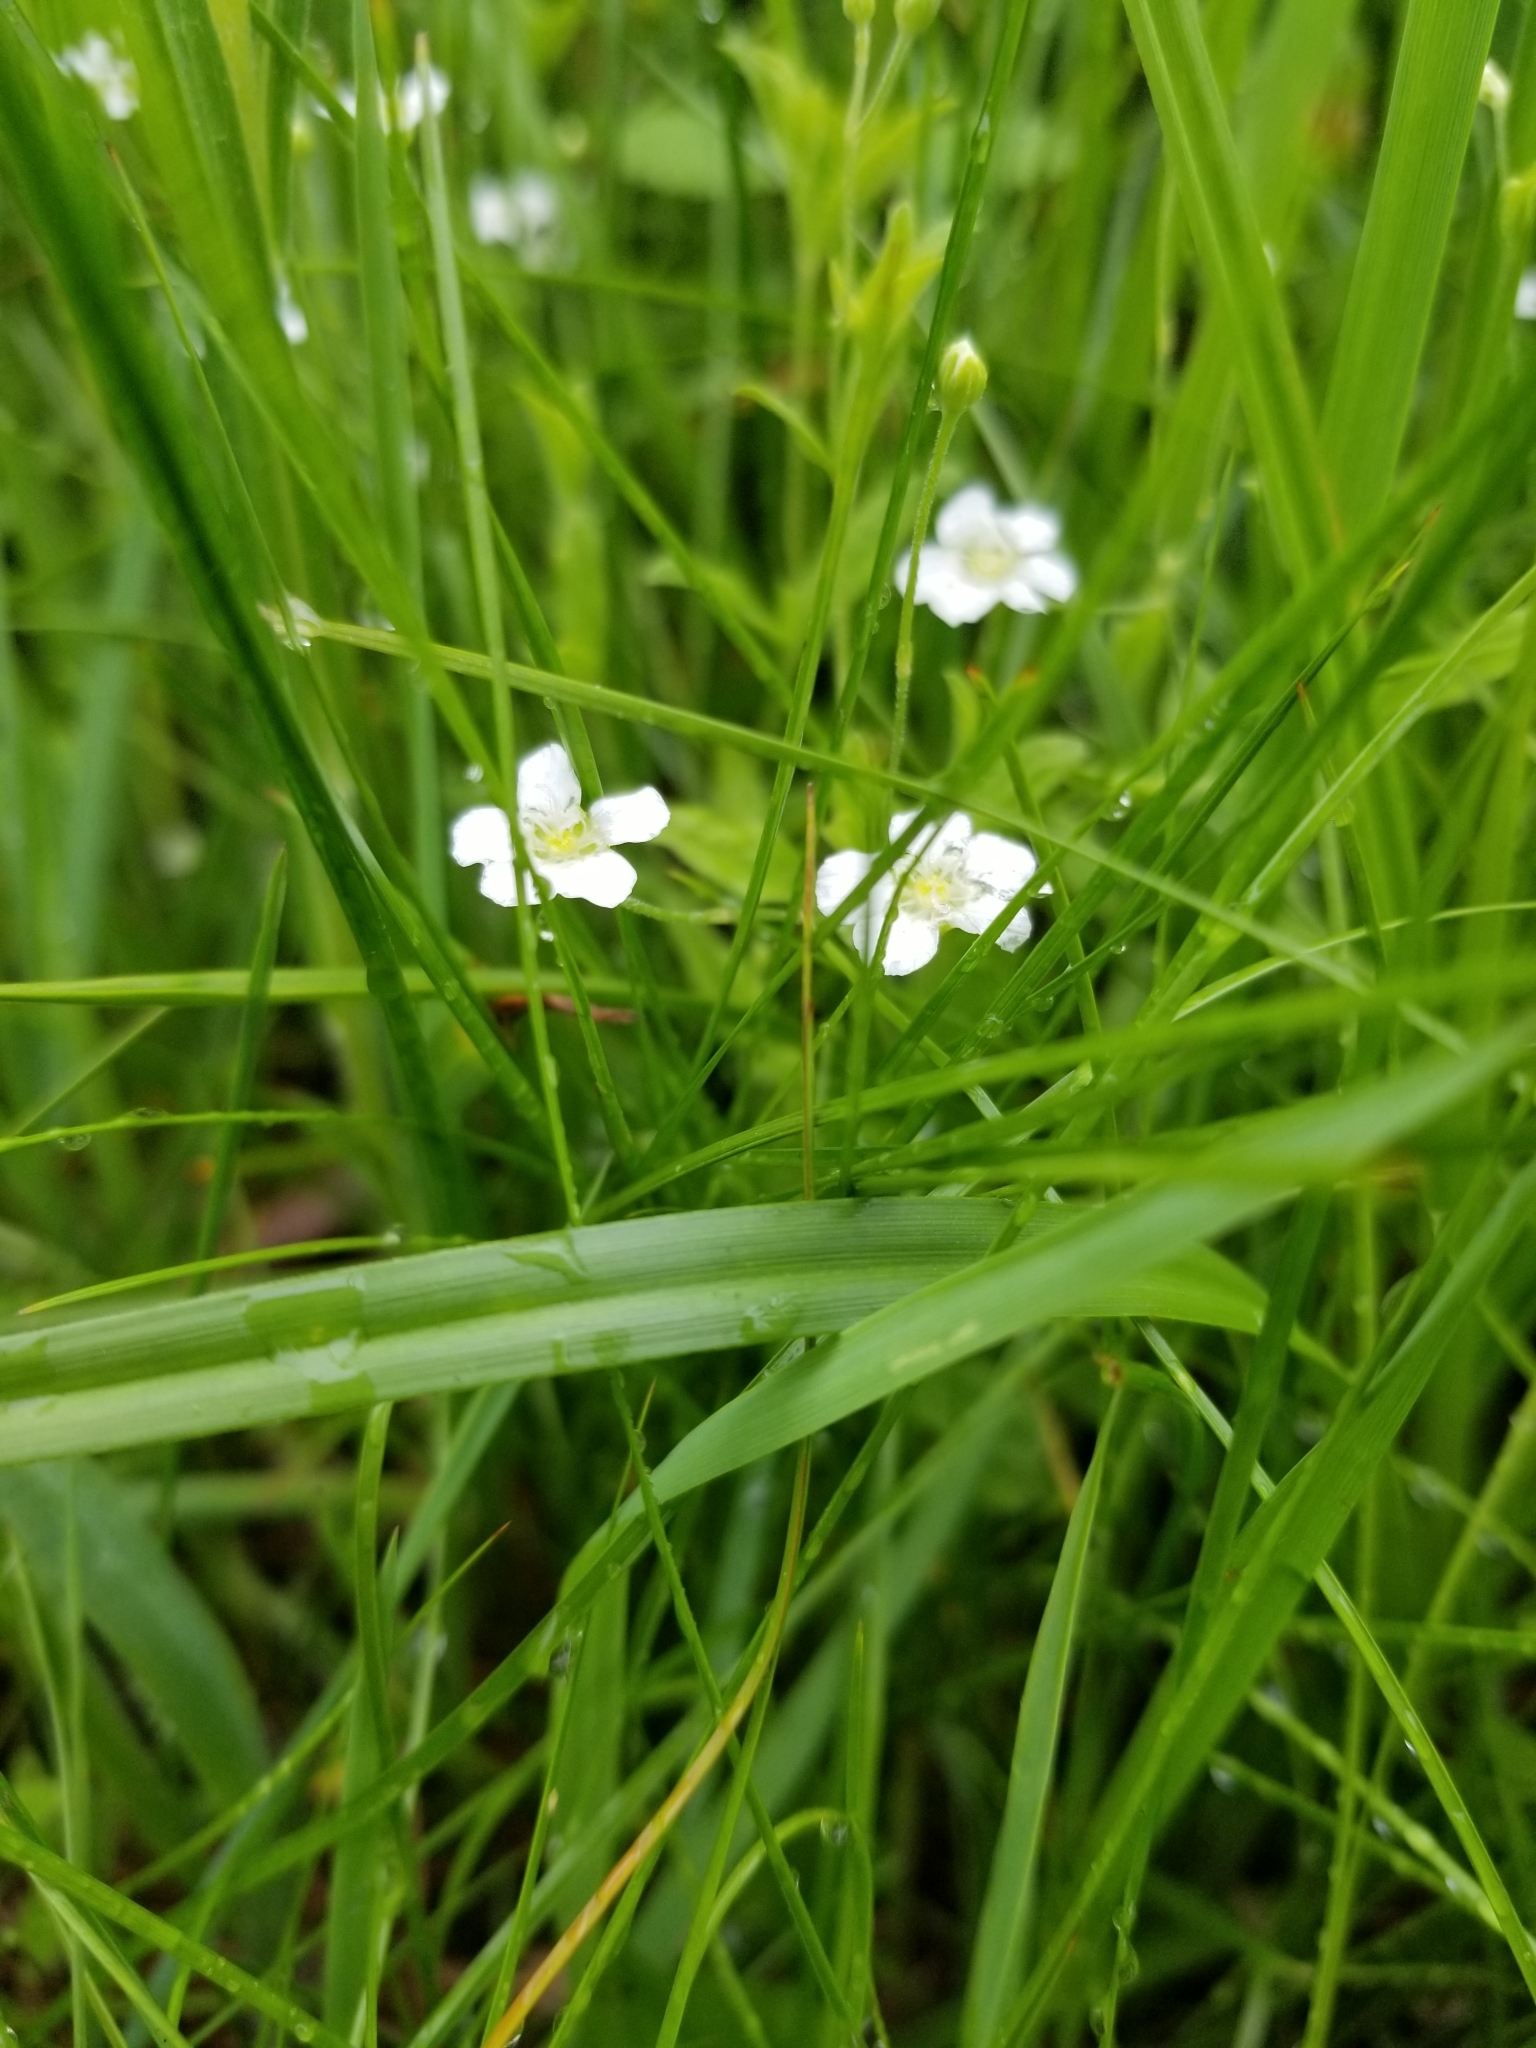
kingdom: Plantae
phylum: Tracheophyta
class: Magnoliopsida
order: Caryophyllales
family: Caryophyllaceae
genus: Moehringia
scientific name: Moehringia lateriflora
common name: Blunt-leaved sandwort
